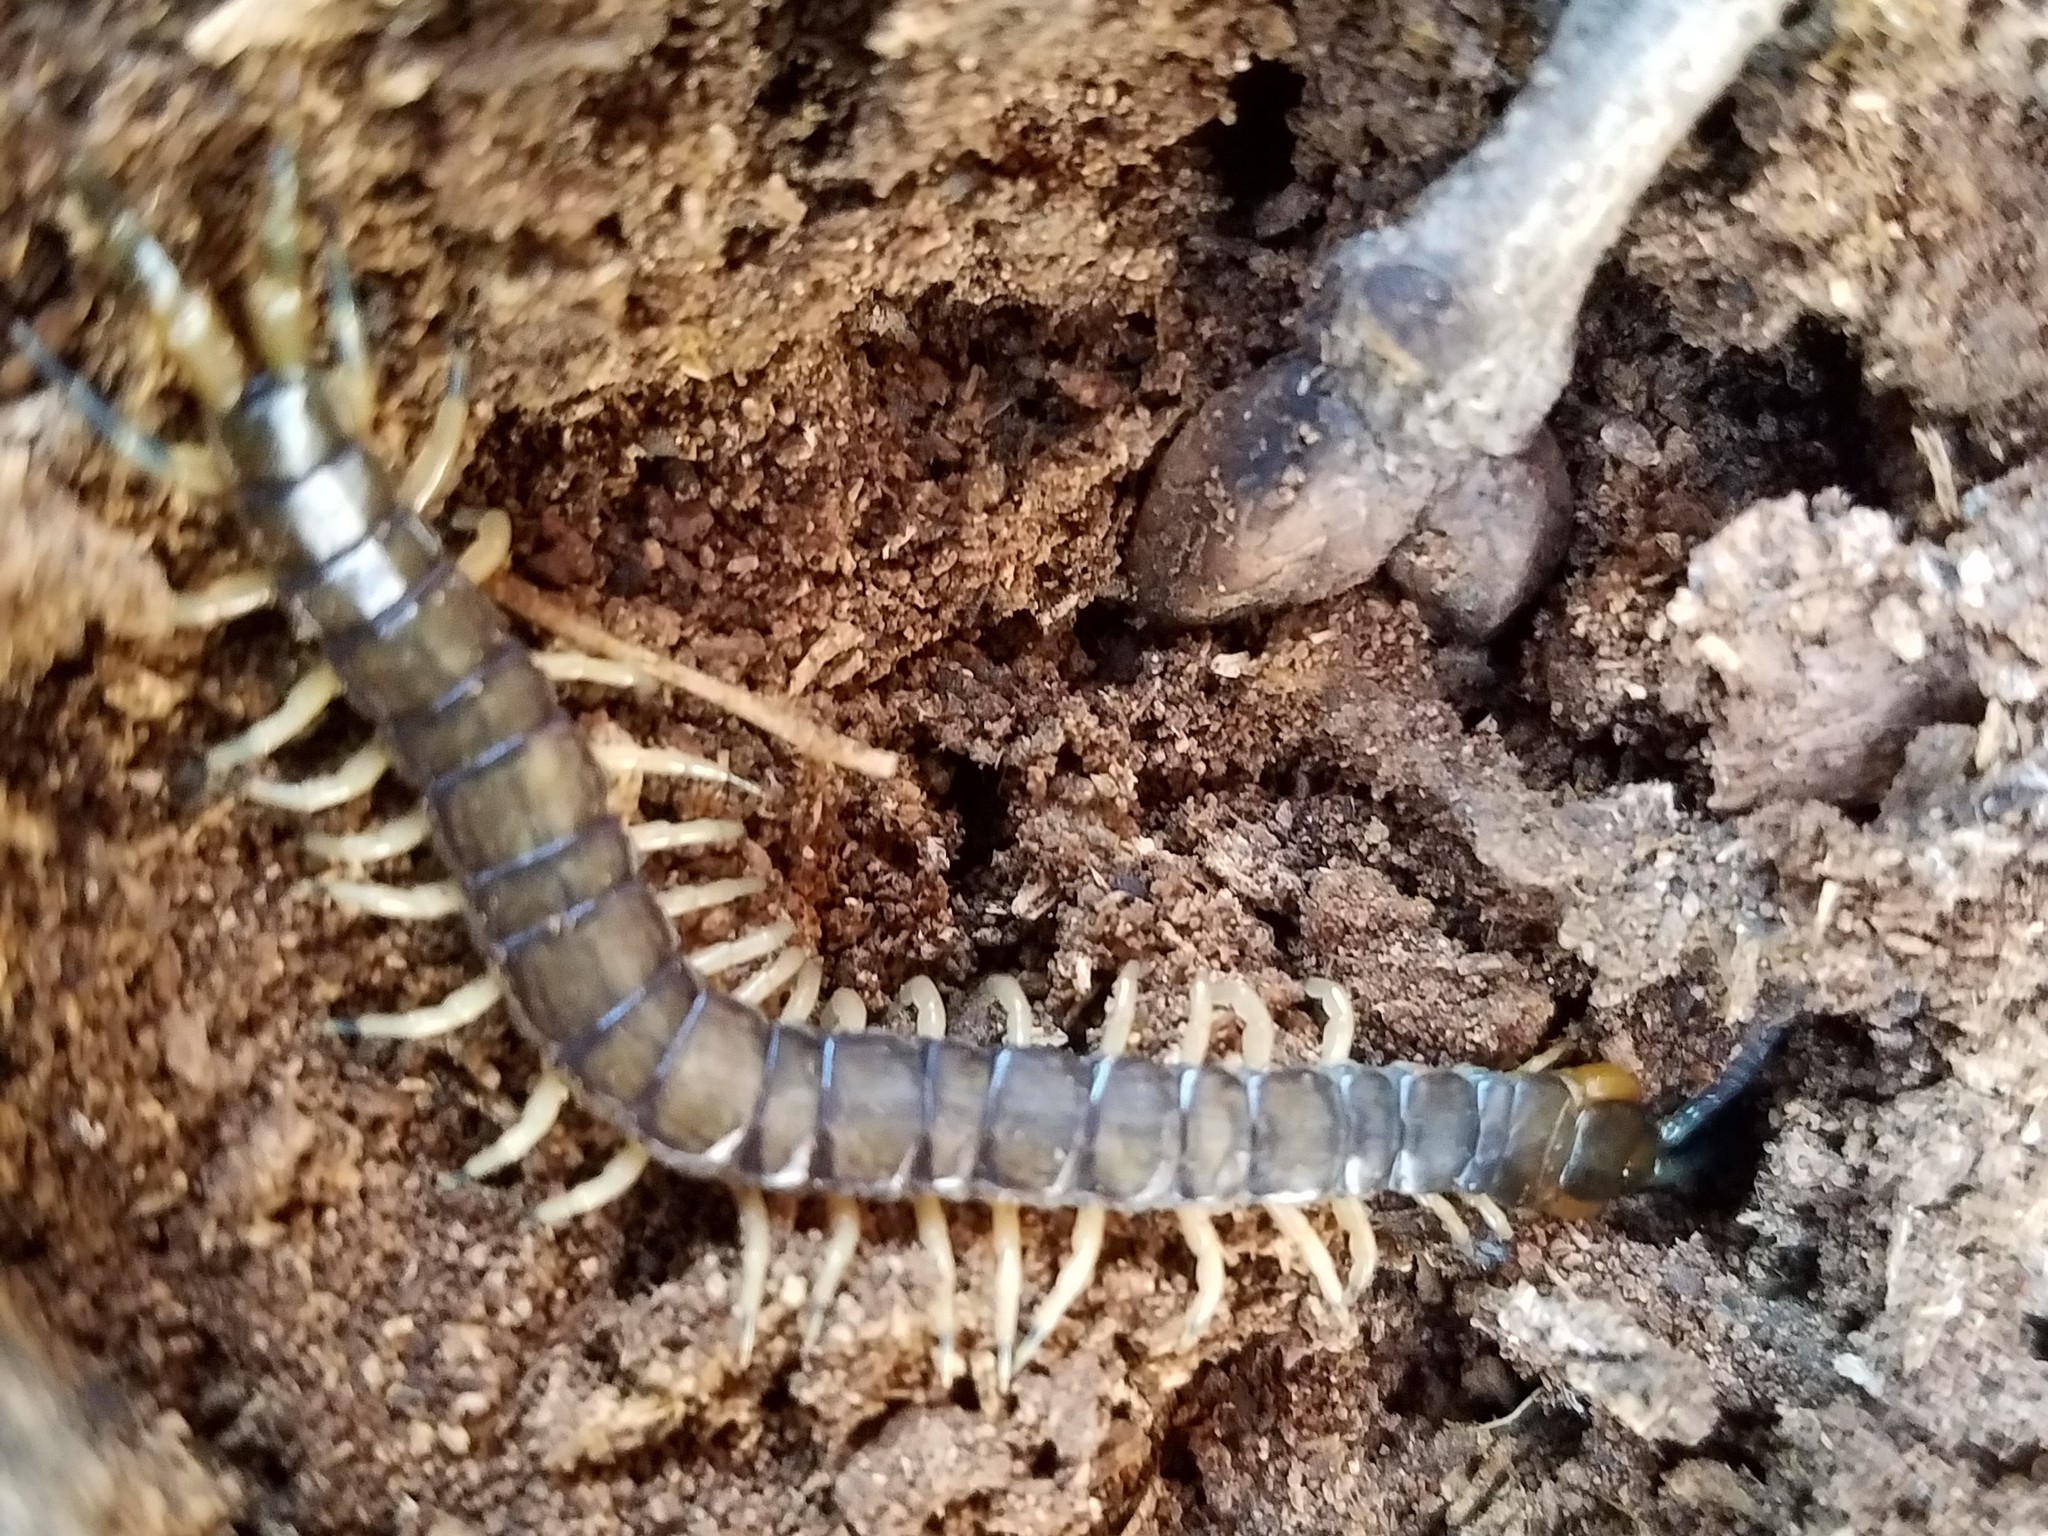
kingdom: Animalia
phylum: Arthropoda
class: Chilopoda
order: Scolopendromorpha
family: Scolopendridae
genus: Hemiscolopendra
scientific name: Hemiscolopendra marginata
